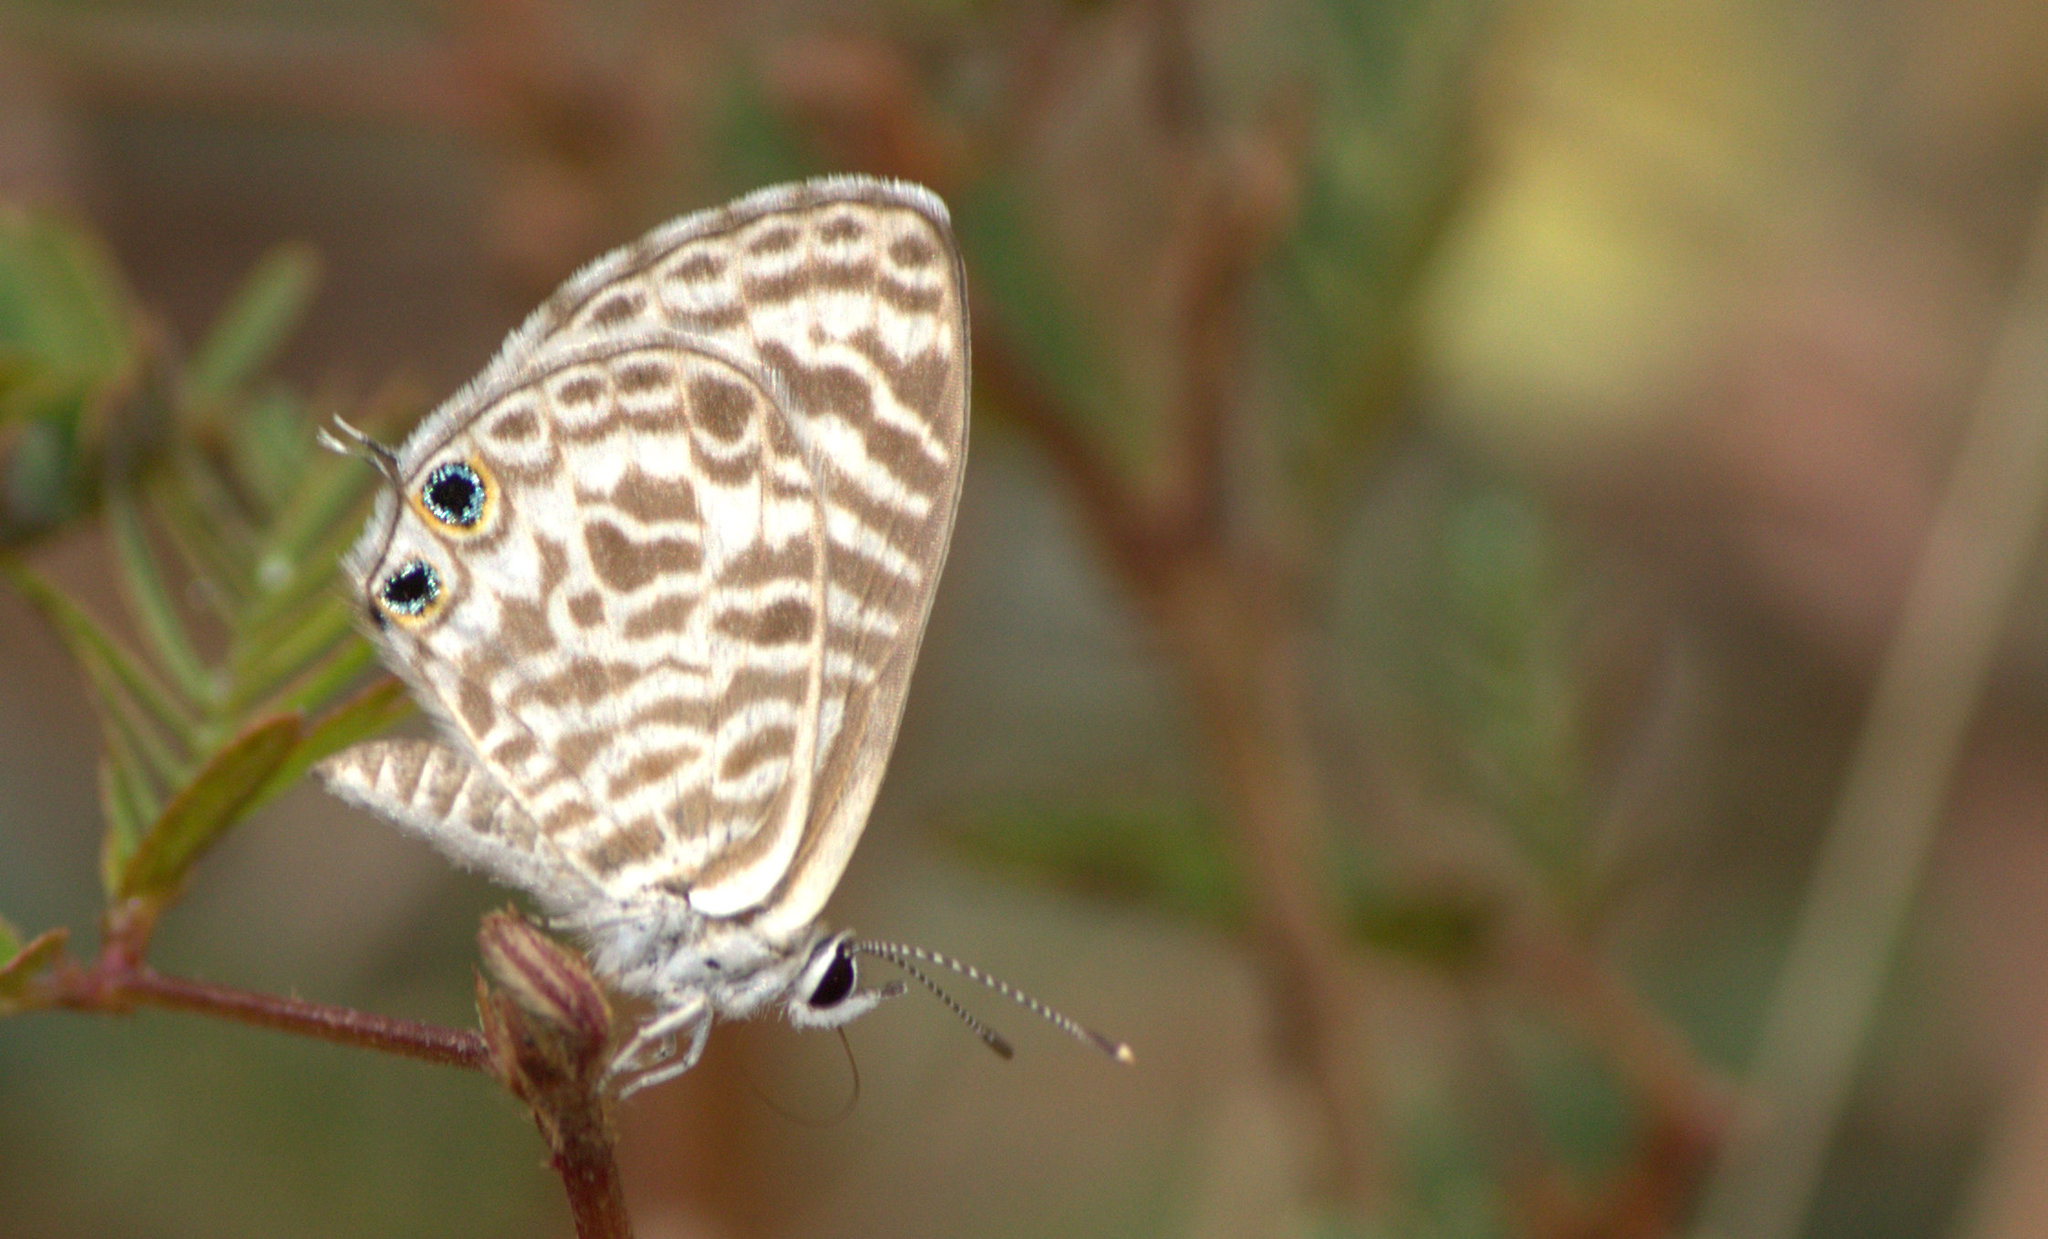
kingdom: Animalia
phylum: Arthropoda
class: Insecta
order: Lepidoptera
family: Lycaenidae
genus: Leptotes
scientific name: Leptotes plinius
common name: Zebra blue
